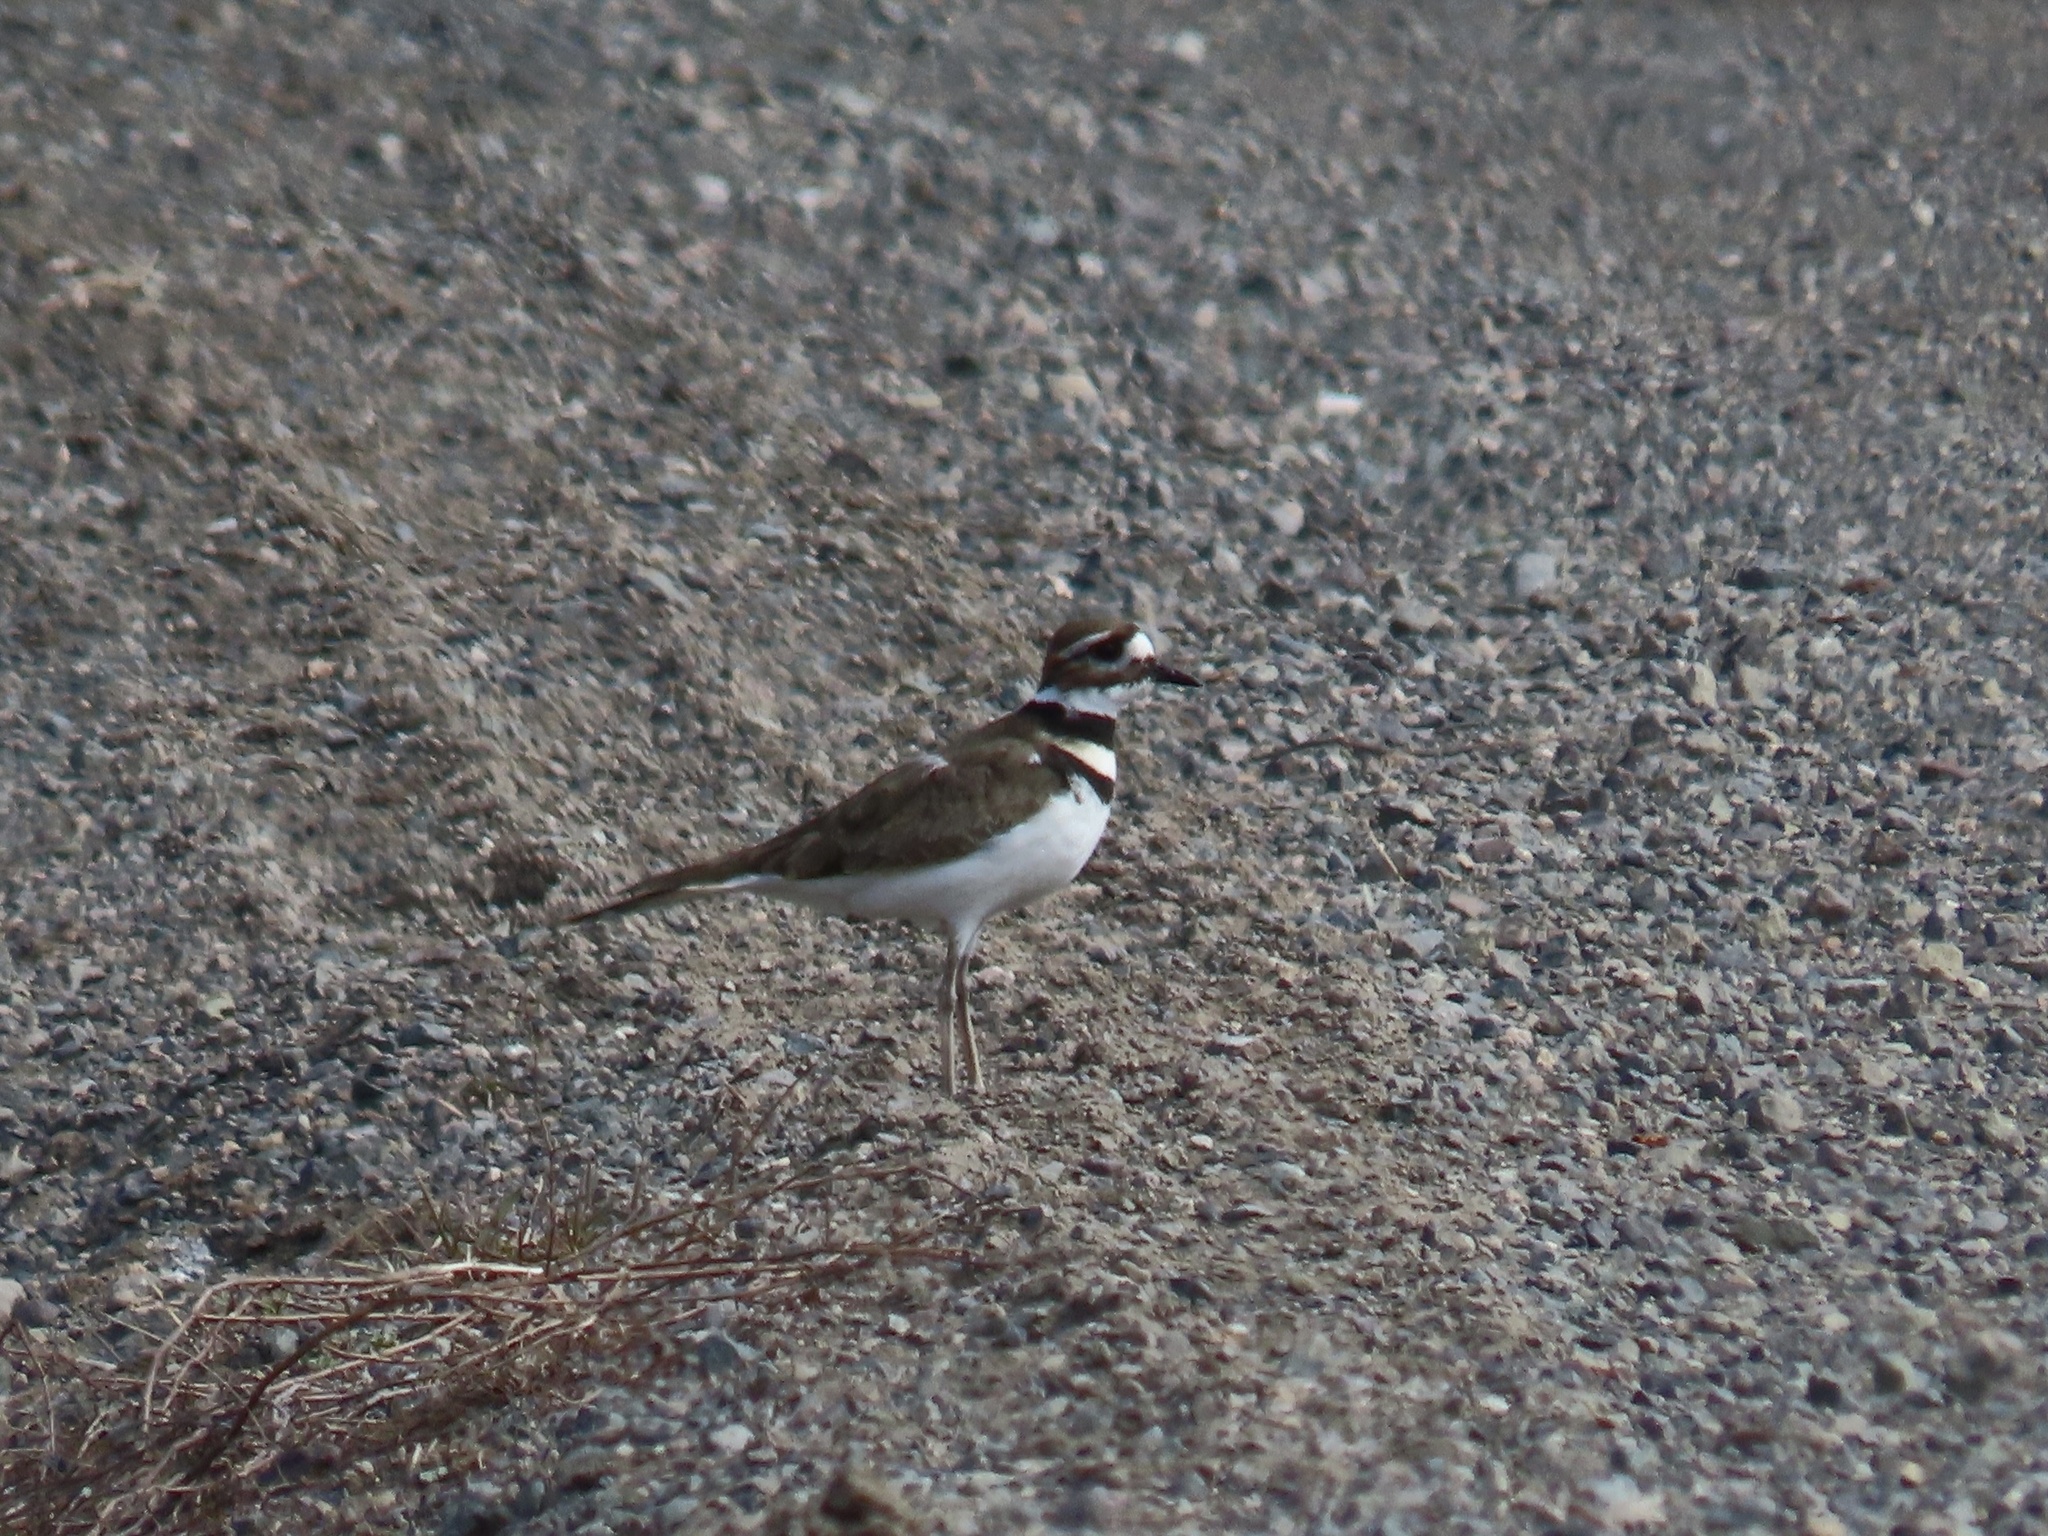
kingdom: Animalia
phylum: Chordata
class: Aves
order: Charadriiformes
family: Charadriidae
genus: Charadrius
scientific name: Charadrius vociferus
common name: Killdeer
